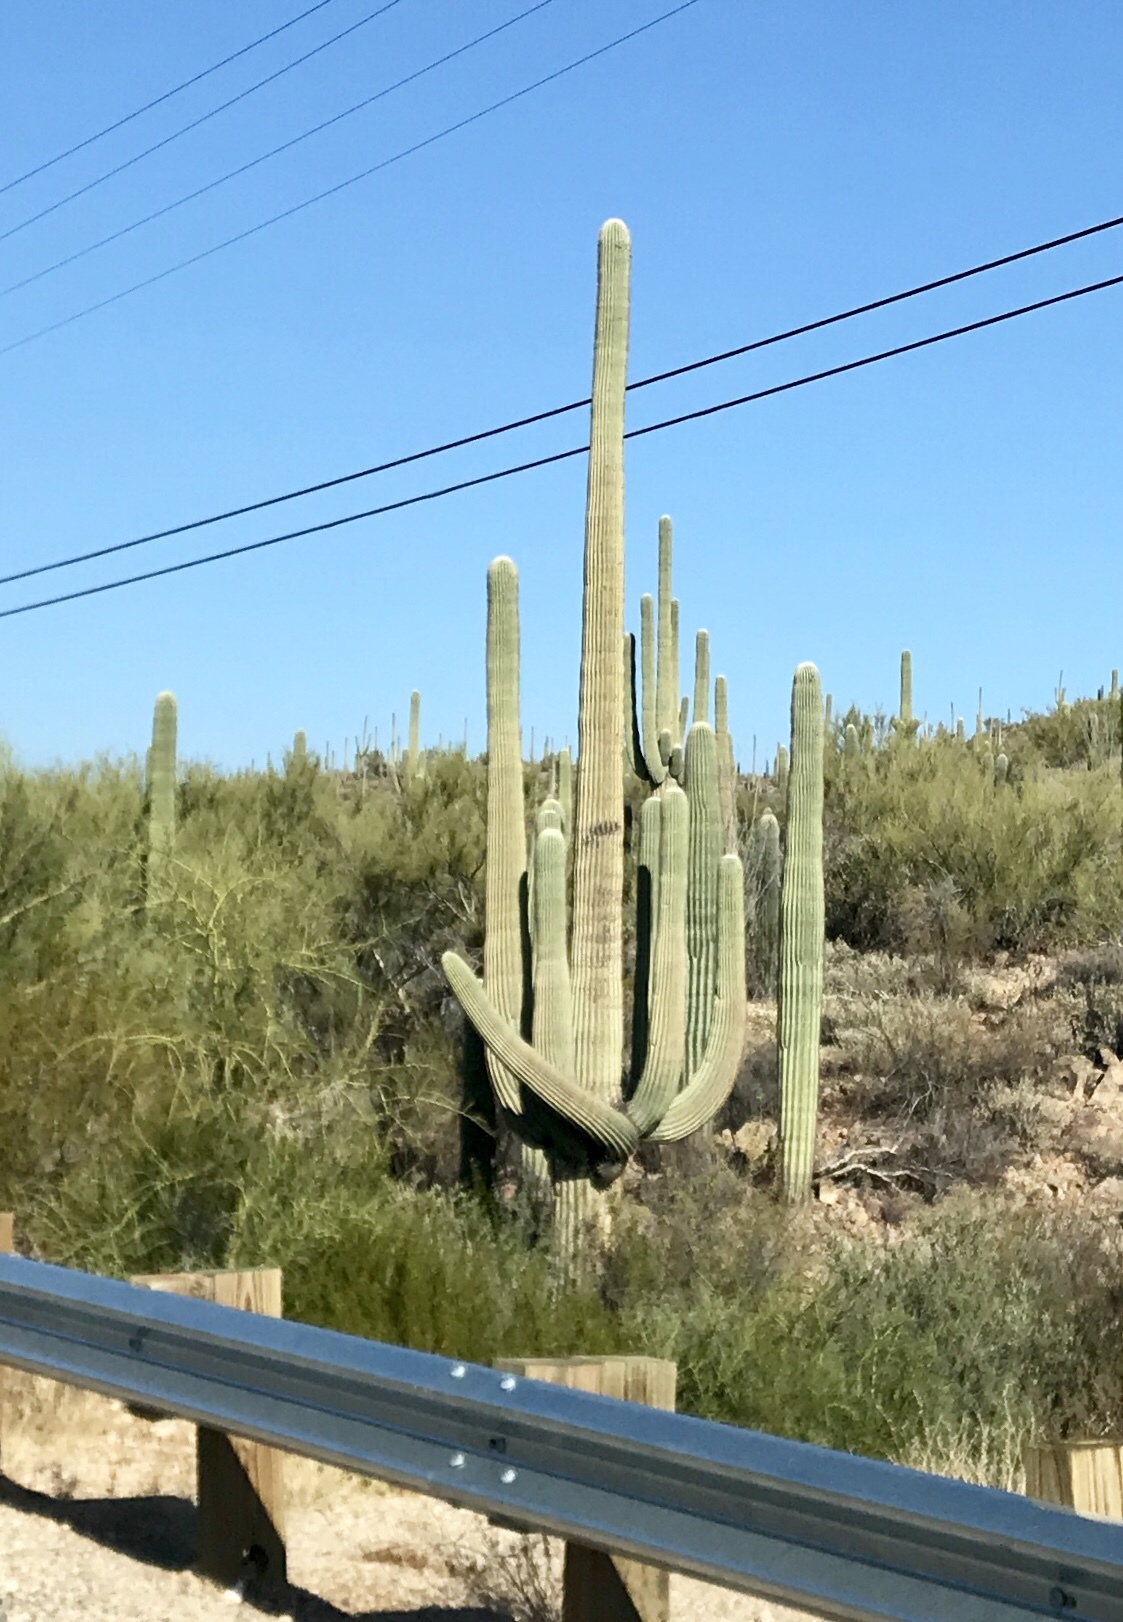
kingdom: Plantae
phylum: Tracheophyta
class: Magnoliopsida
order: Caryophyllales
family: Cactaceae
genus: Carnegiea
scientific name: Carnegiea gigantea
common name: Saguaro
